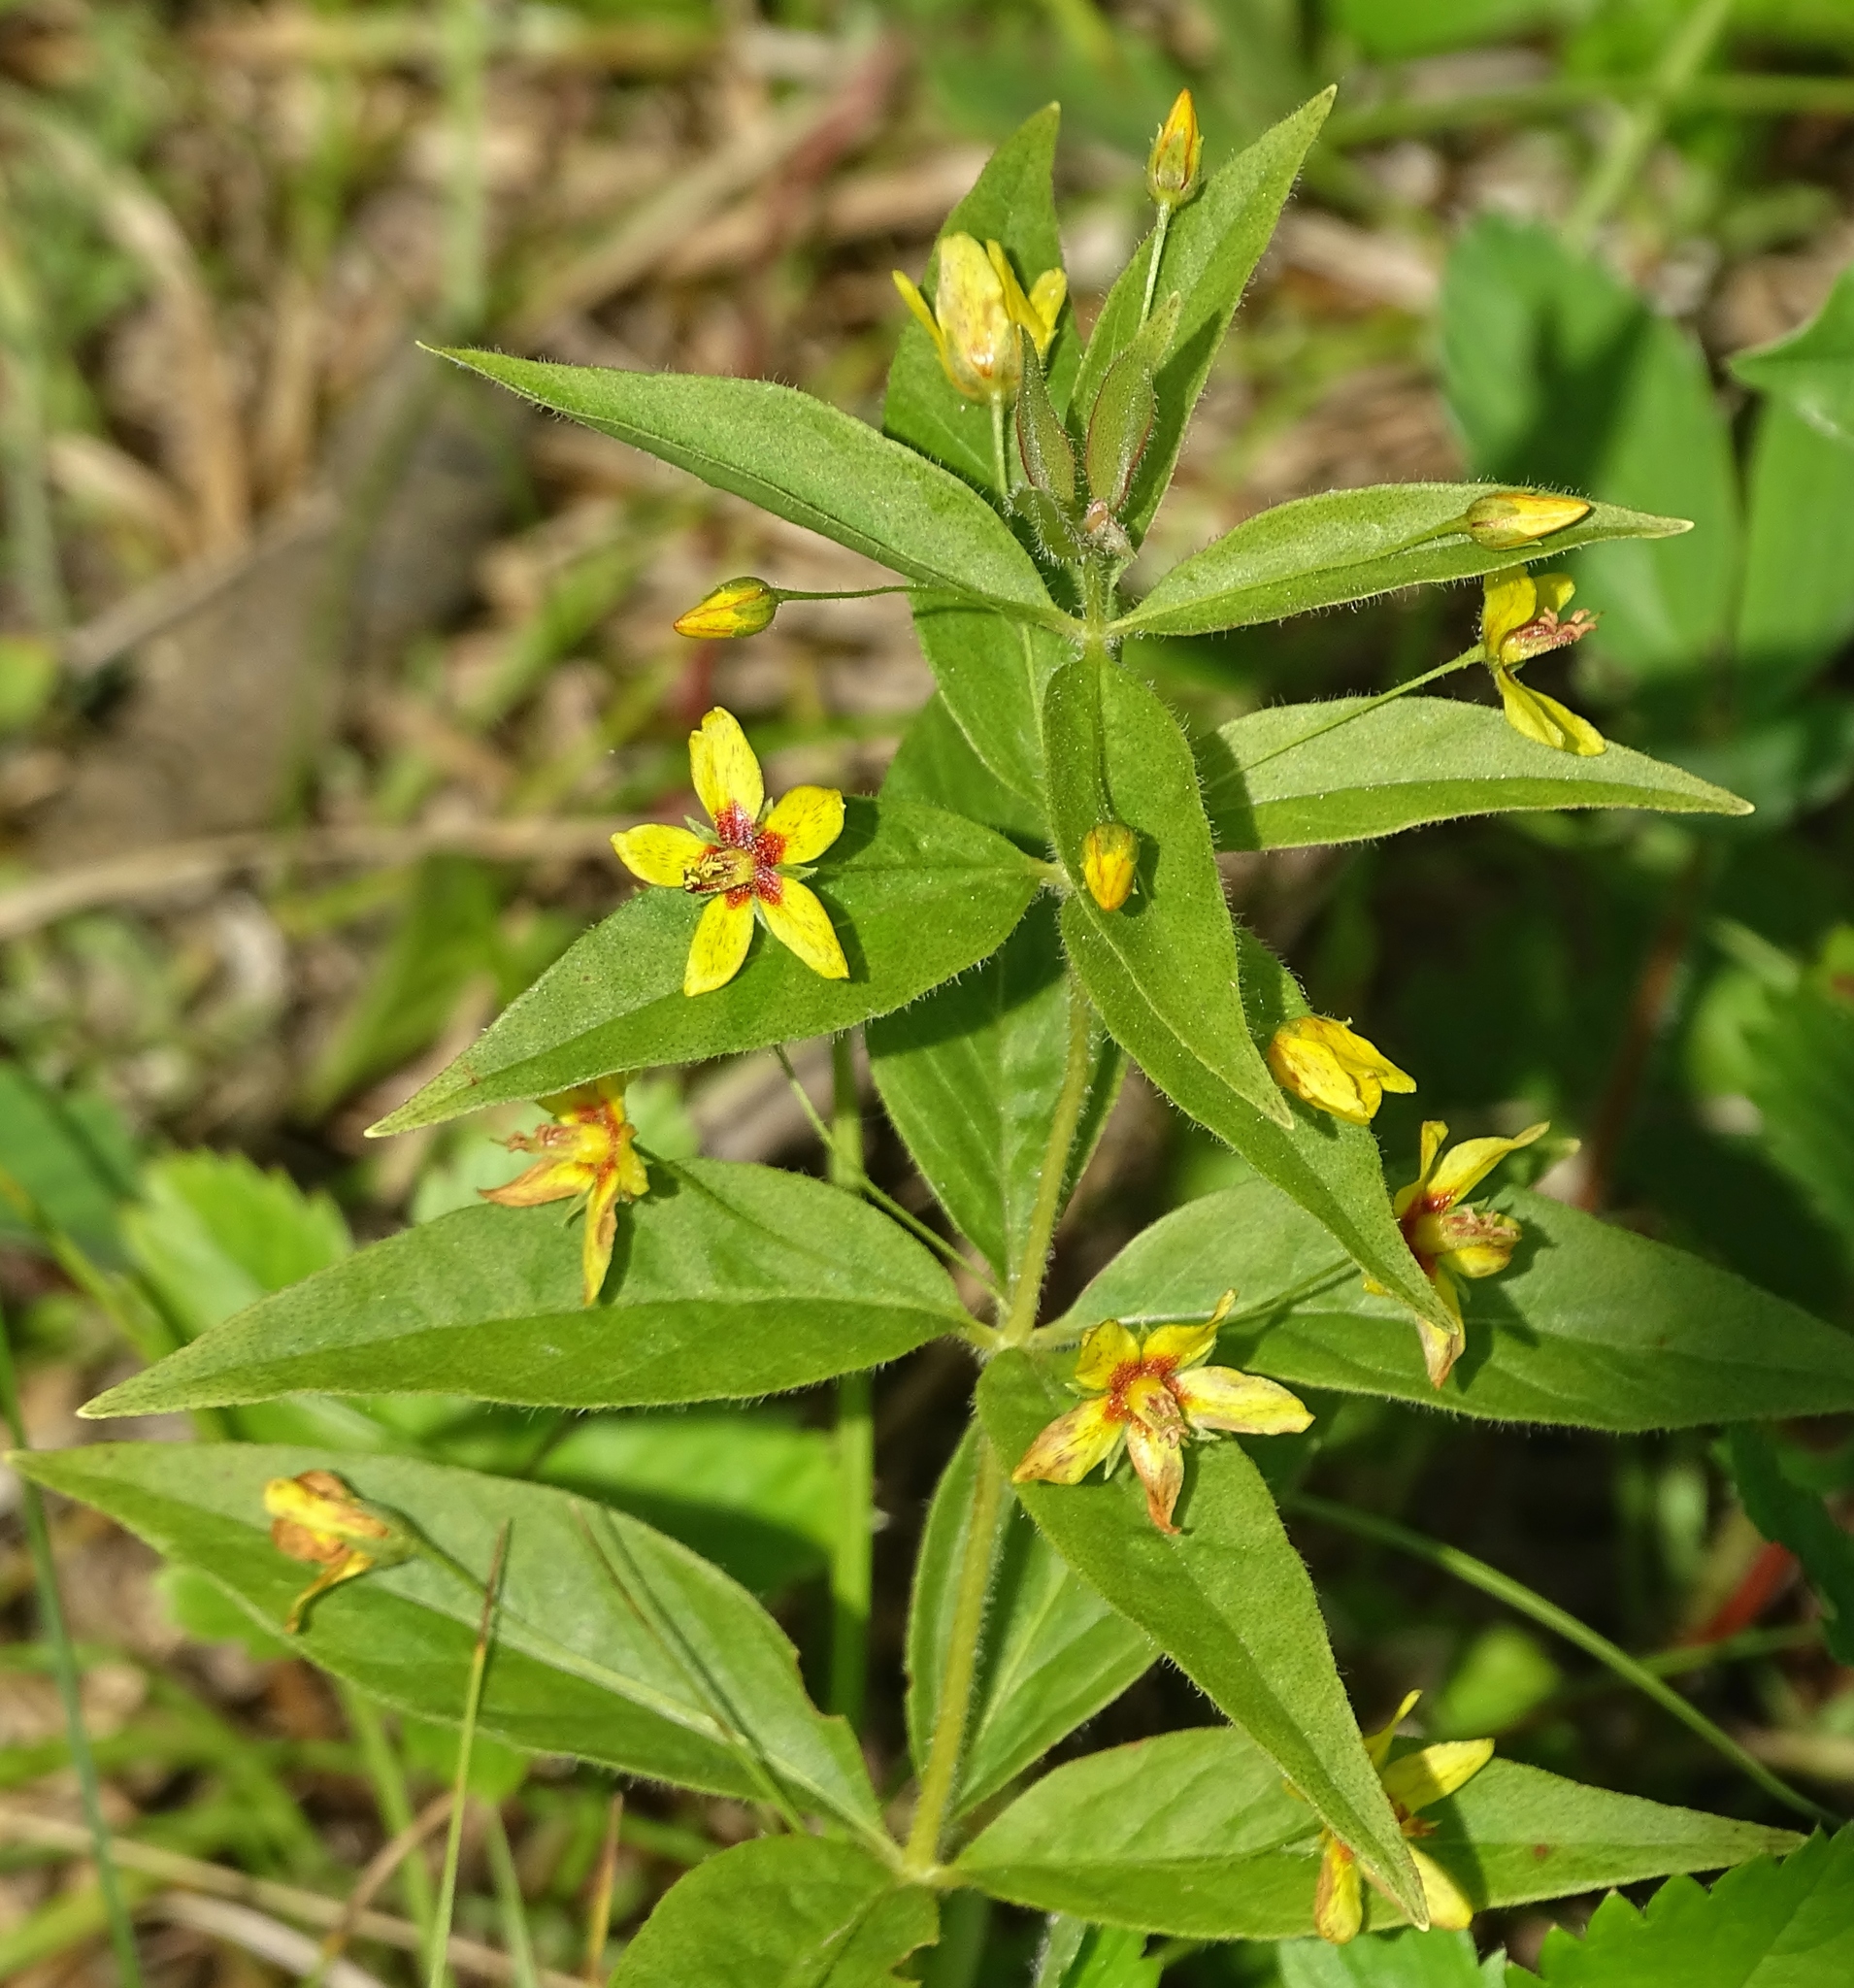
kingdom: Plantae
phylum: Tracheophyta
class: Magnoliopsida
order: Ericales
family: Primulaceae
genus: Lysimachia
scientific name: Lysimachia quadrifolia
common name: Whorled loosestrife
